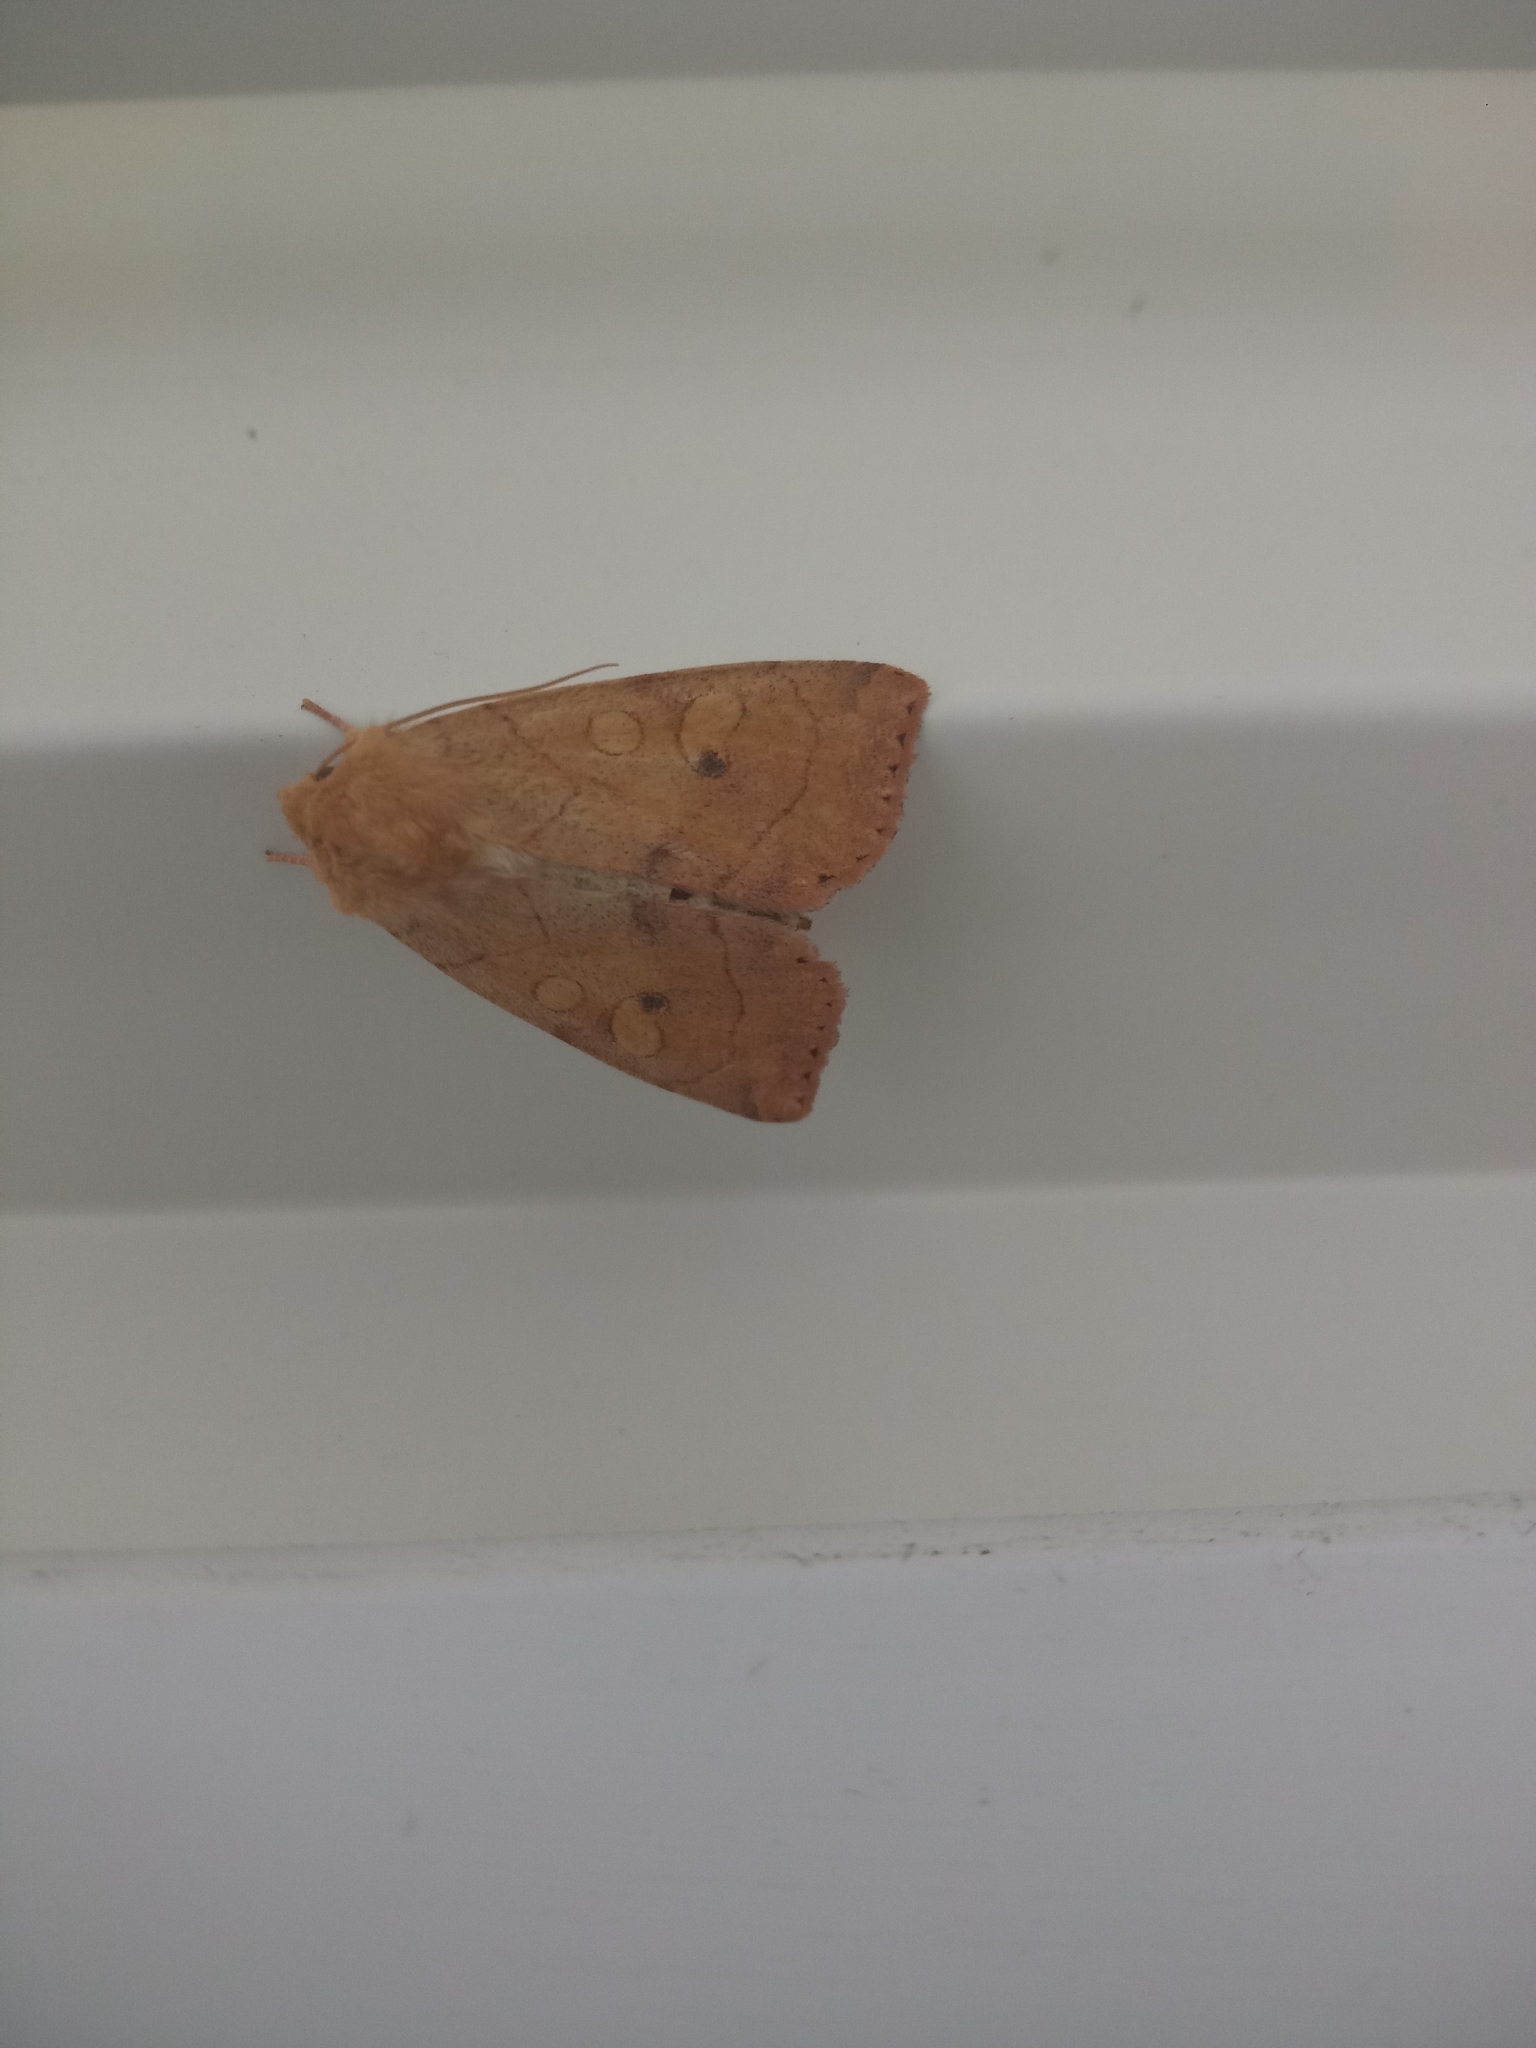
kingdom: Animalia
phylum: Arthropoda
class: Insecta
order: Lepidoptera
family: Noctuidae
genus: Enargia
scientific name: Enargia paleacea
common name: Angle-striped sallow
